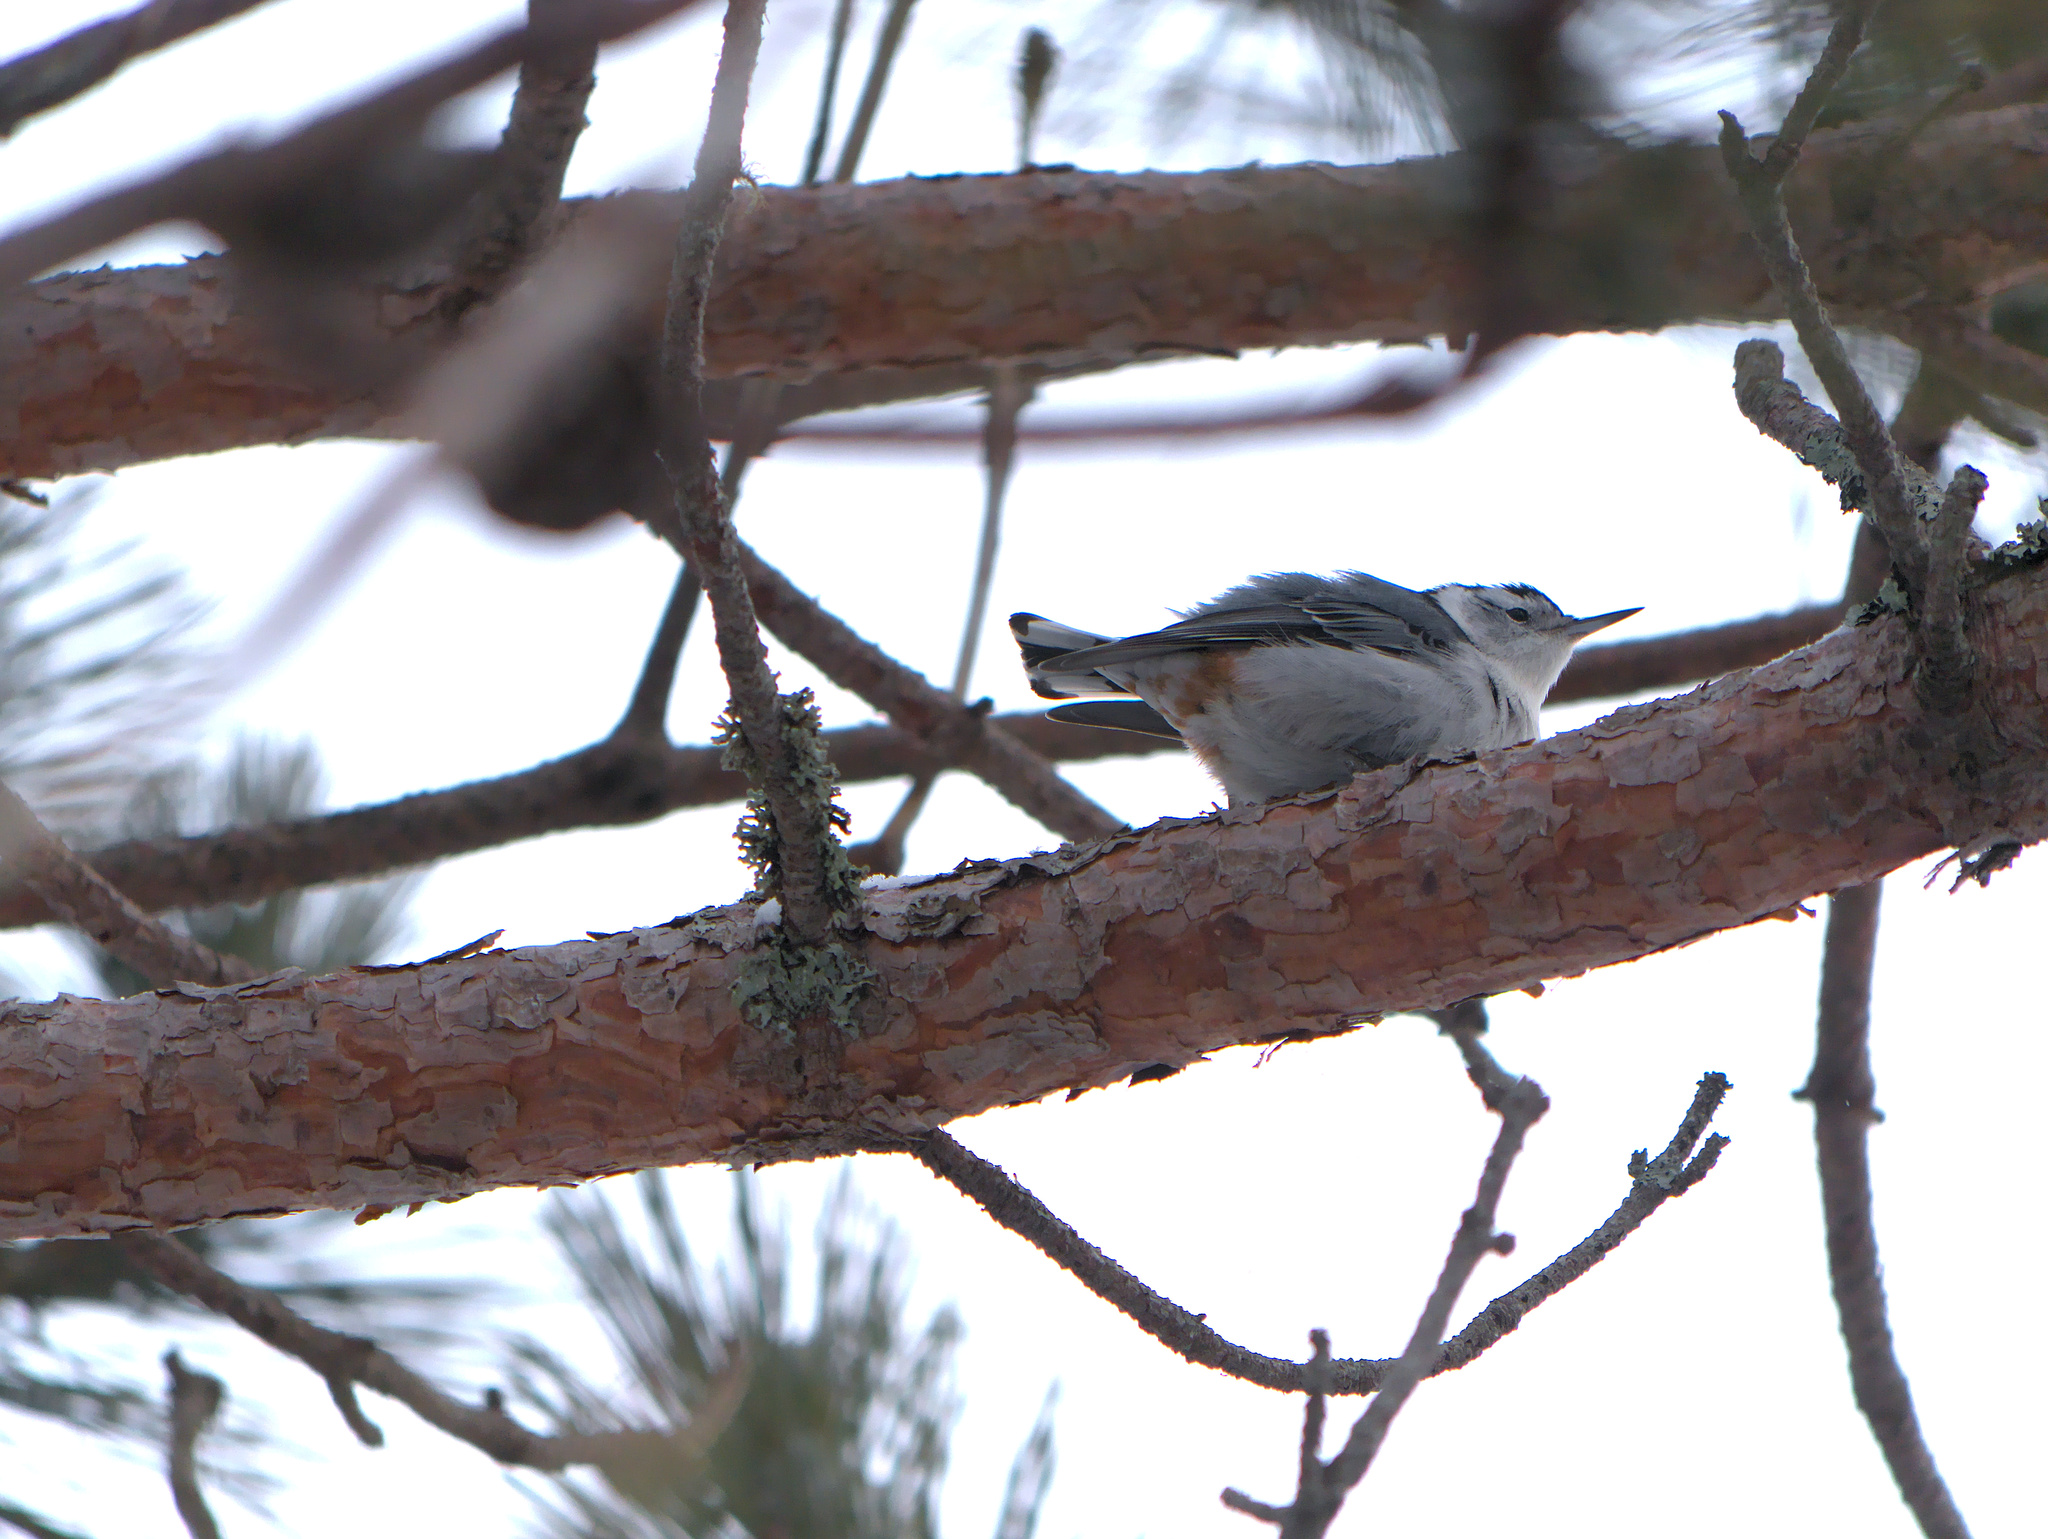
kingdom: Animalia
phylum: Chordata
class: Aves
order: Passeriformes
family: Sittidae
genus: Sitta
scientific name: Sitta carolinensis
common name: White-breasted nuthatch
